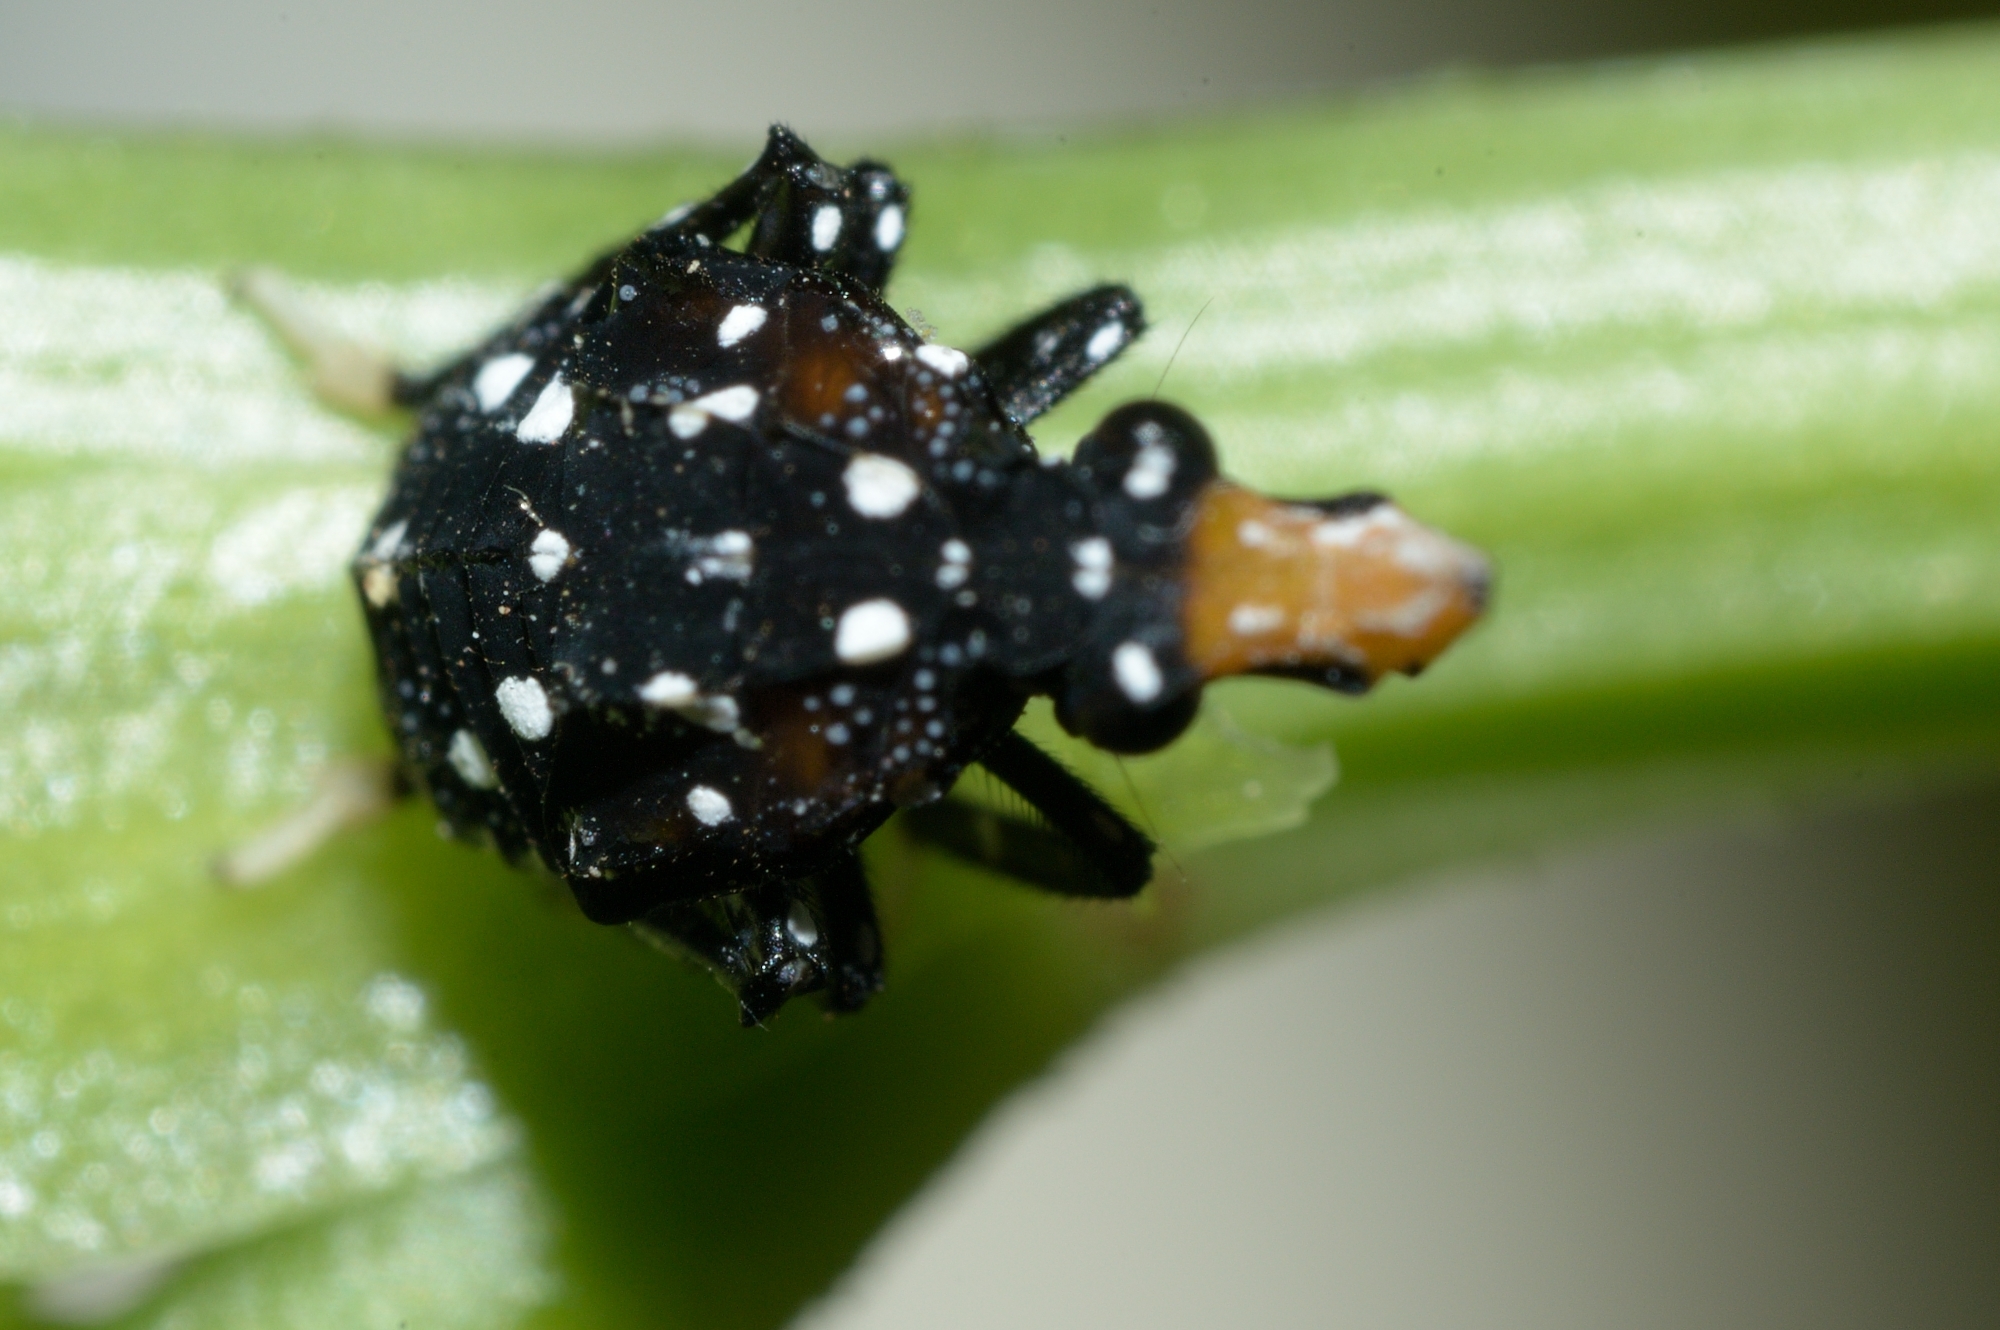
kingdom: Animalia
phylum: Arthropoda
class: Insecta
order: Hemiptera
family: Fulgoridae
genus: Kalidasa
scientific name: Kalidasa lanata
